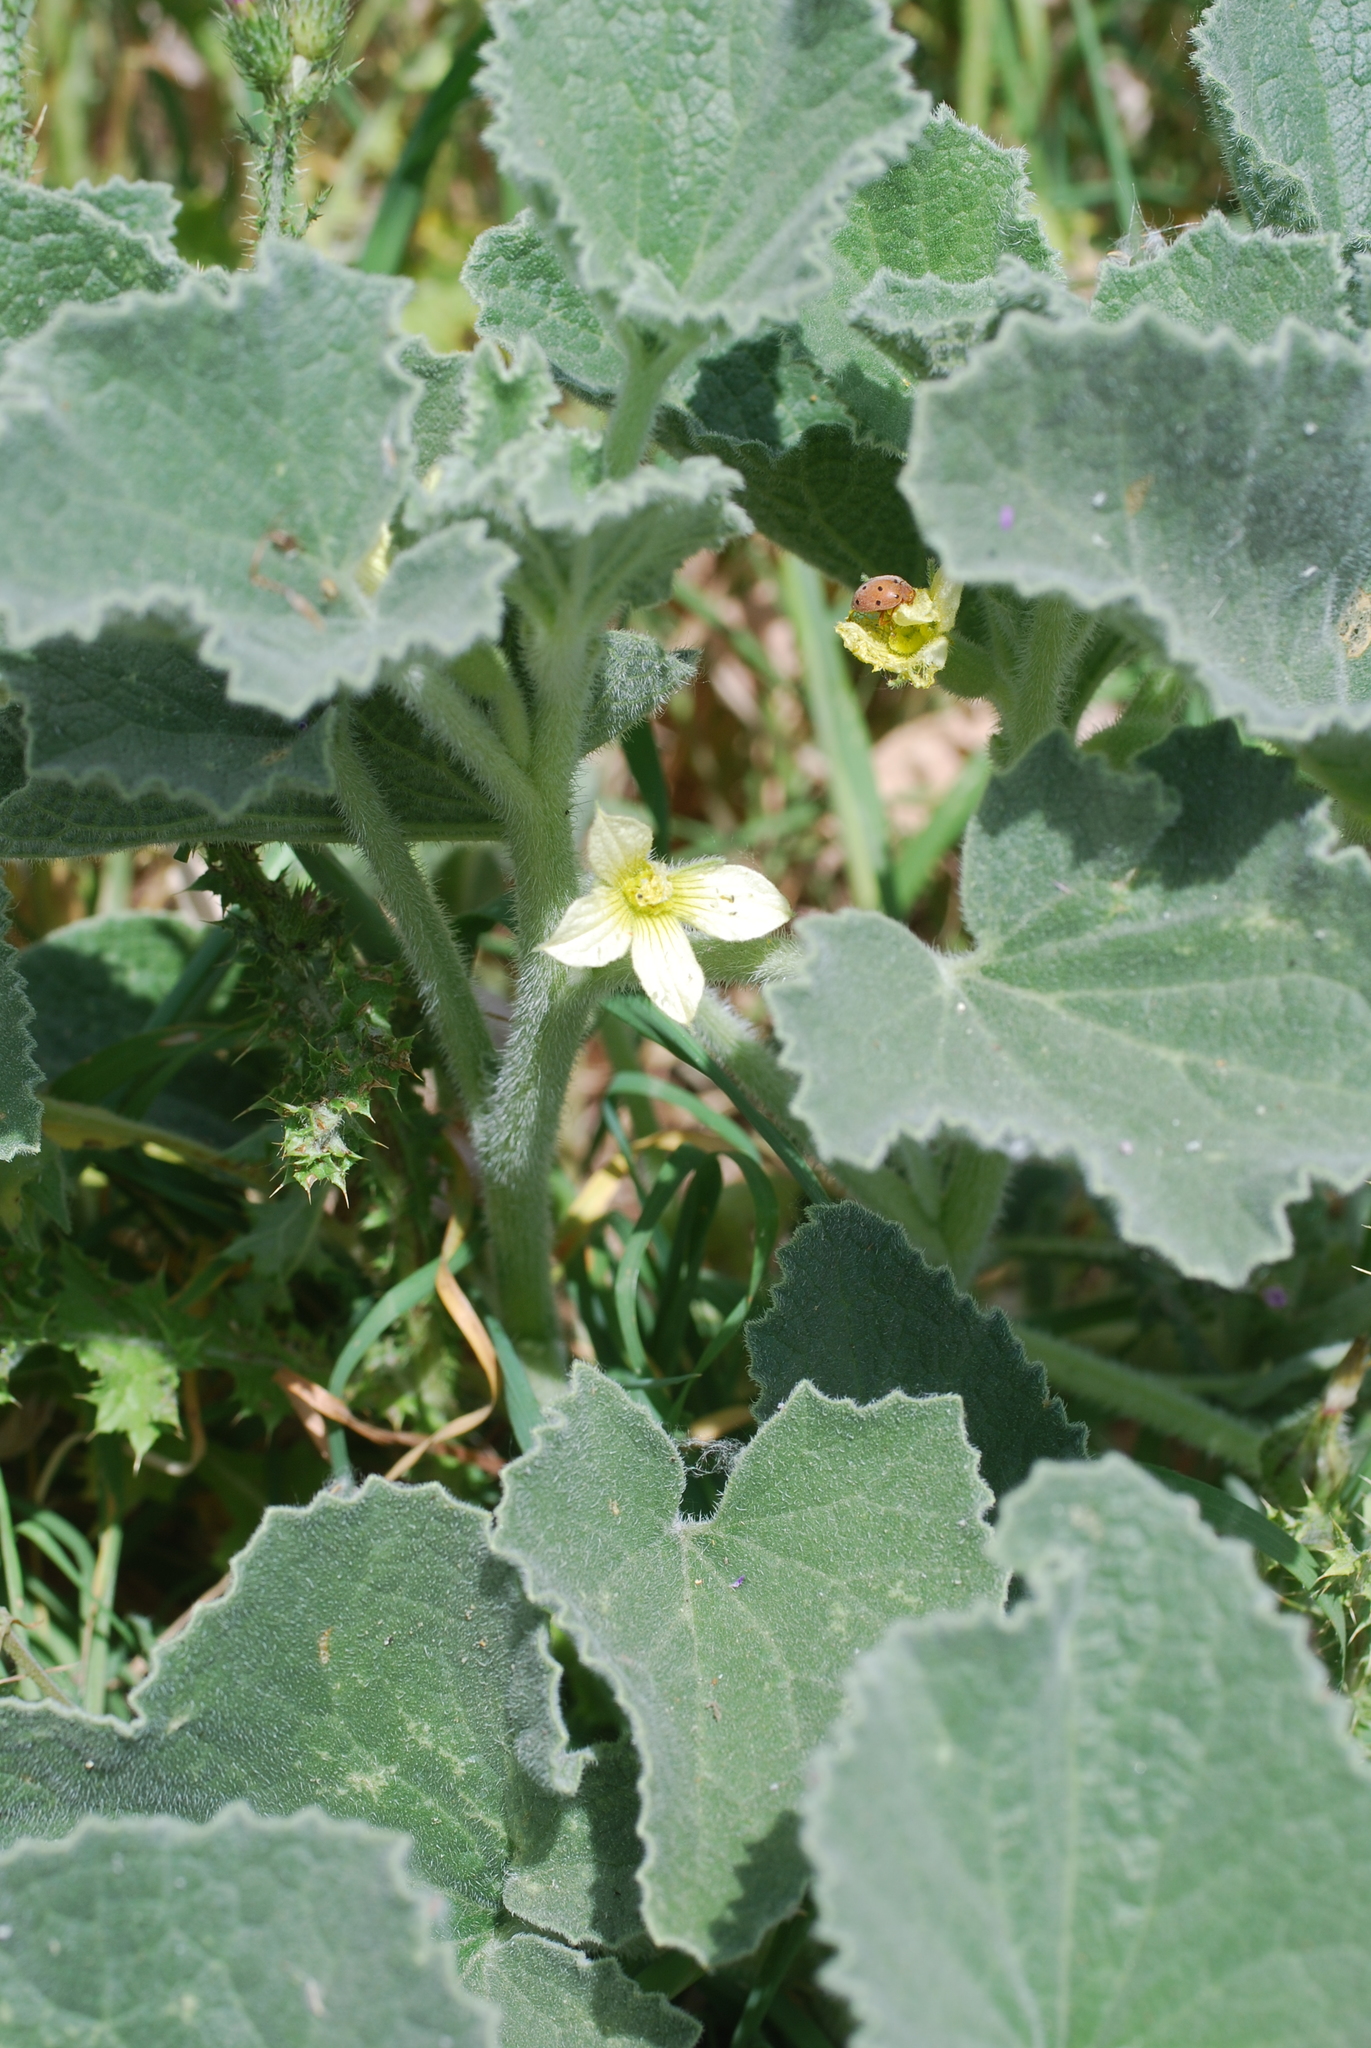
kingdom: Plantae
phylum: Tracheophyta
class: Magnoliopsida
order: Cucurbitales
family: Cucurbitaceae
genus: Ecballium
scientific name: Ecballium elaterium
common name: Squirting cucumber
